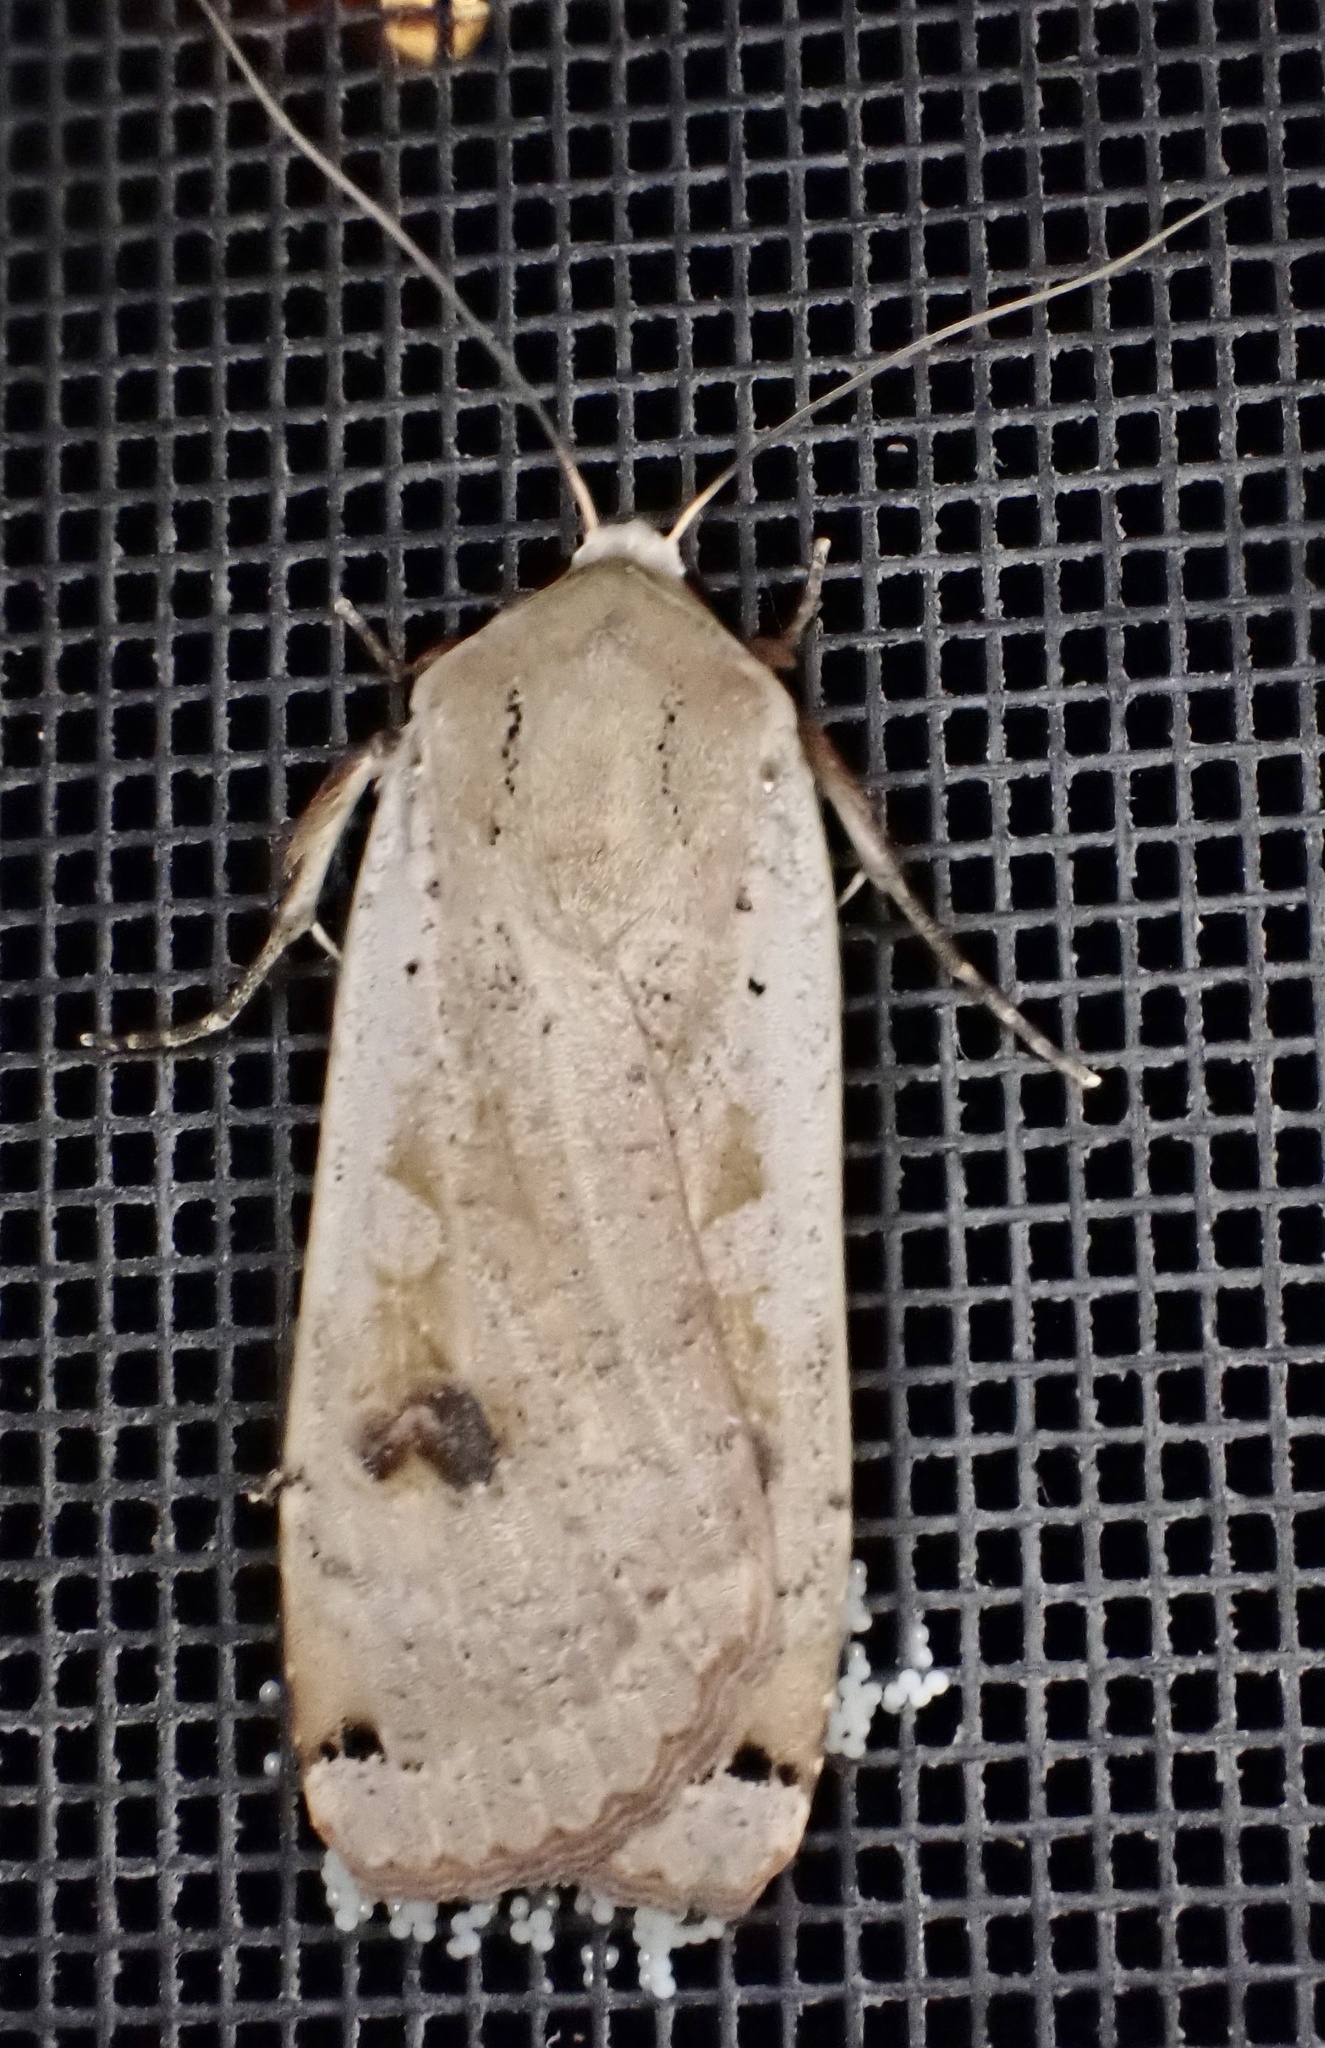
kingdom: Animalia
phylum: Arthropoda
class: Insecta
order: Lepidoptera
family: Noctuidae
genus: Noctua
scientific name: Noctua pronuba
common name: Large yellow underwing
